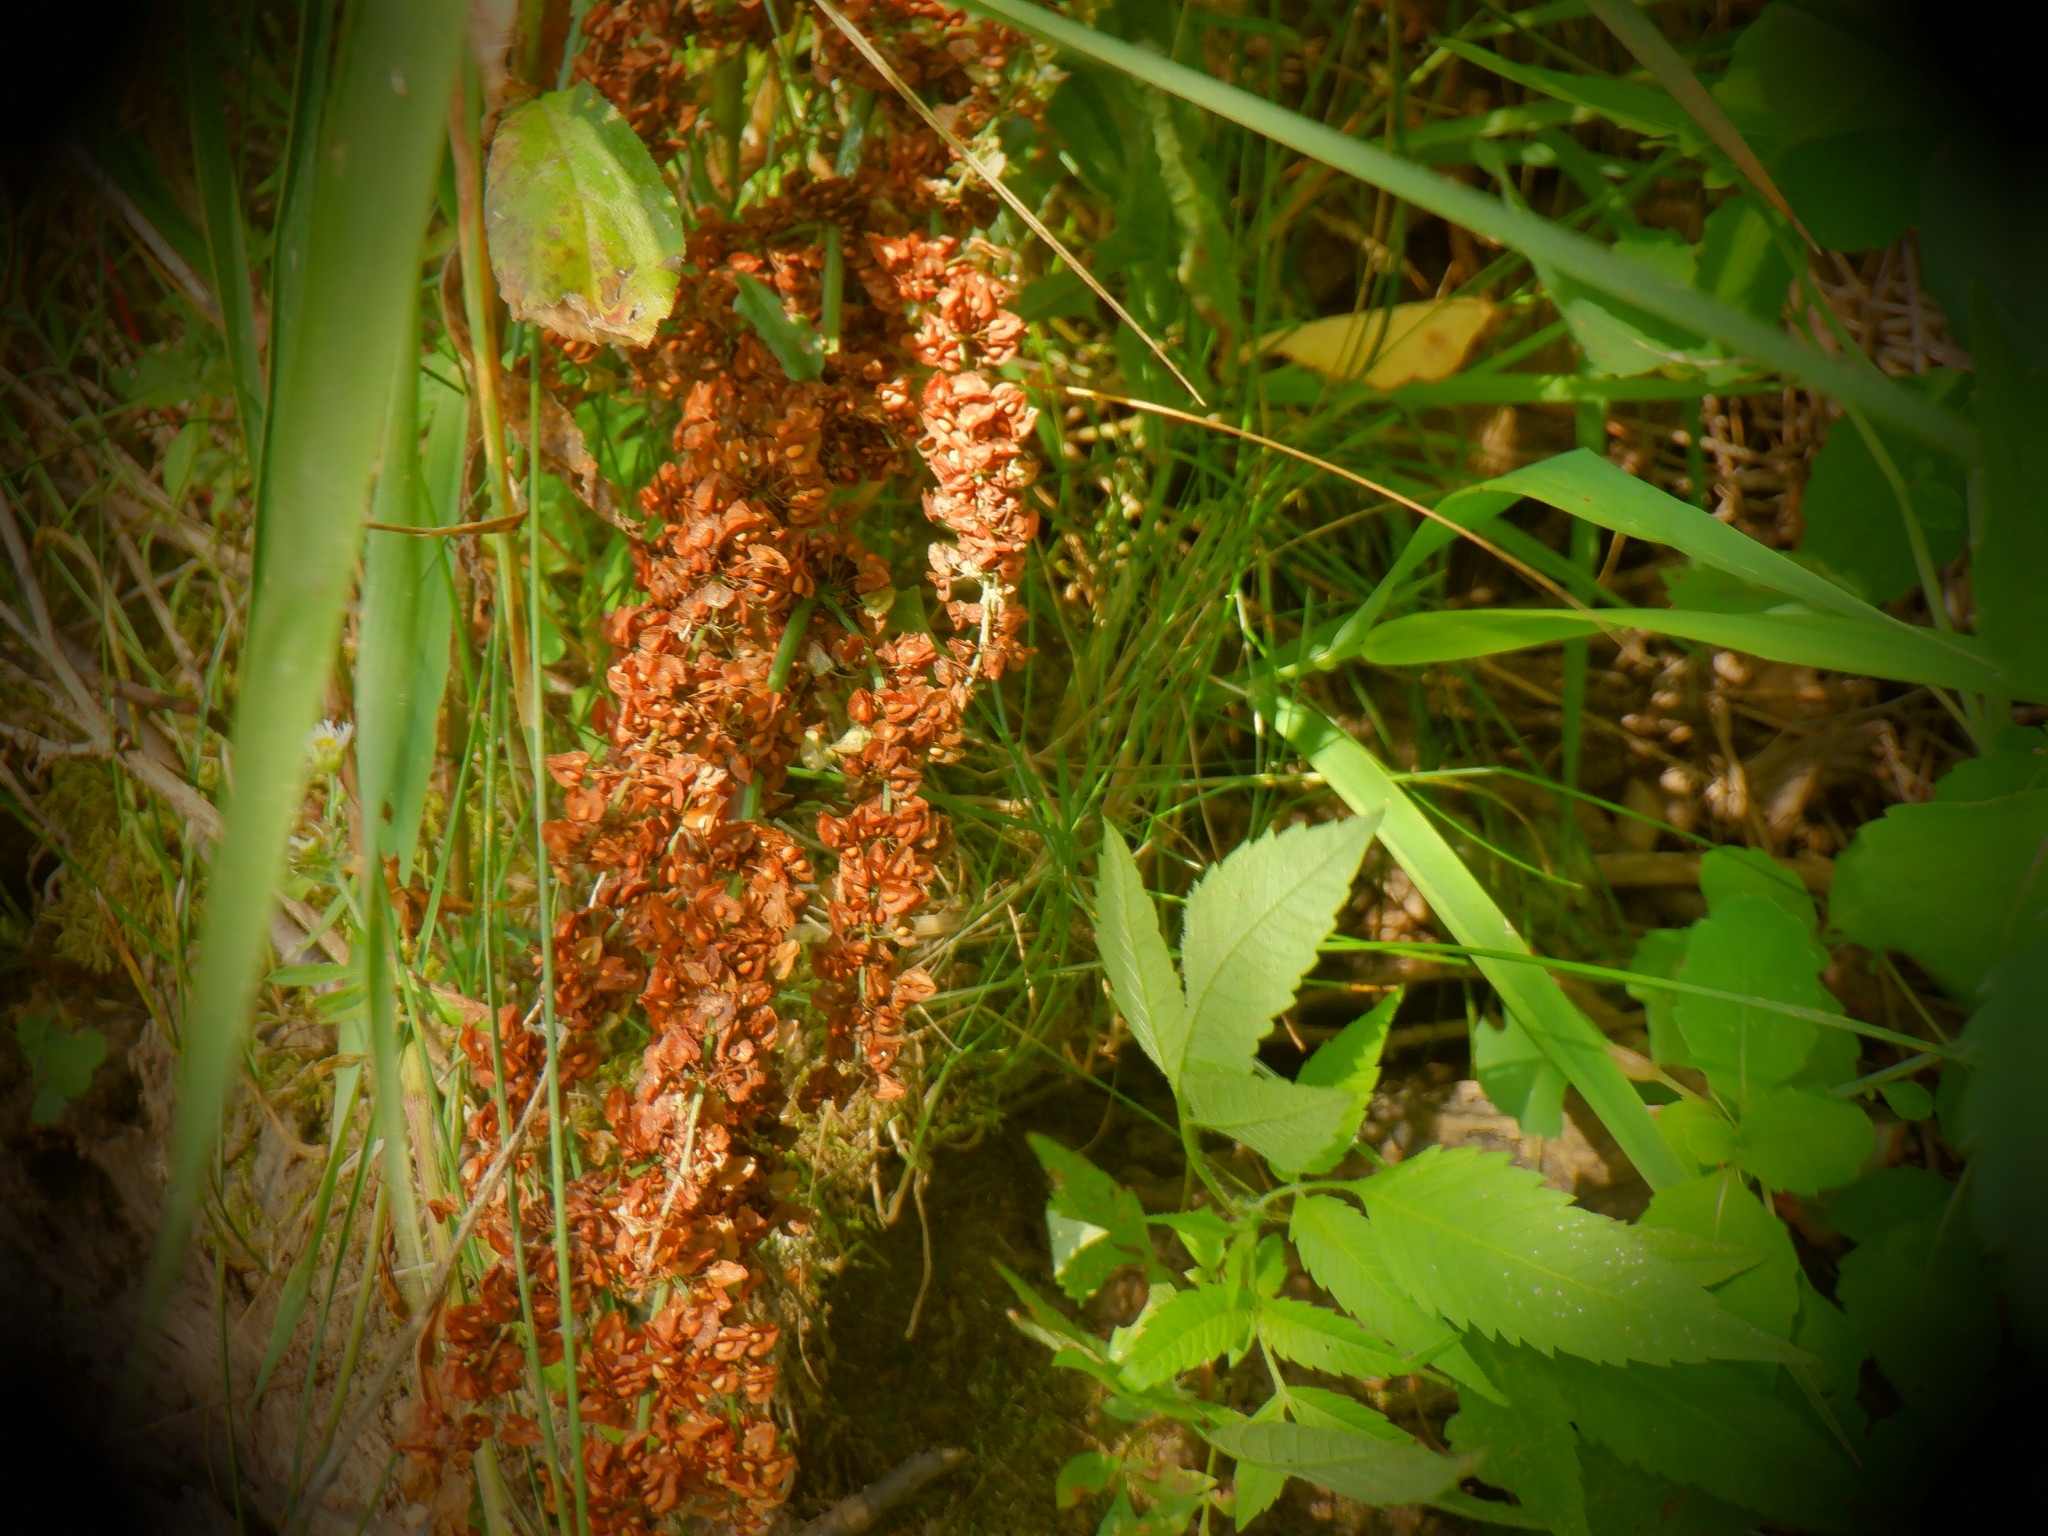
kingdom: Plantae
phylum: Tracheophyta
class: Magnoliopsida
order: Caryophyllales
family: Polygonaceae
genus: Rumex
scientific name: Rumex crispus
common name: Curled dock
